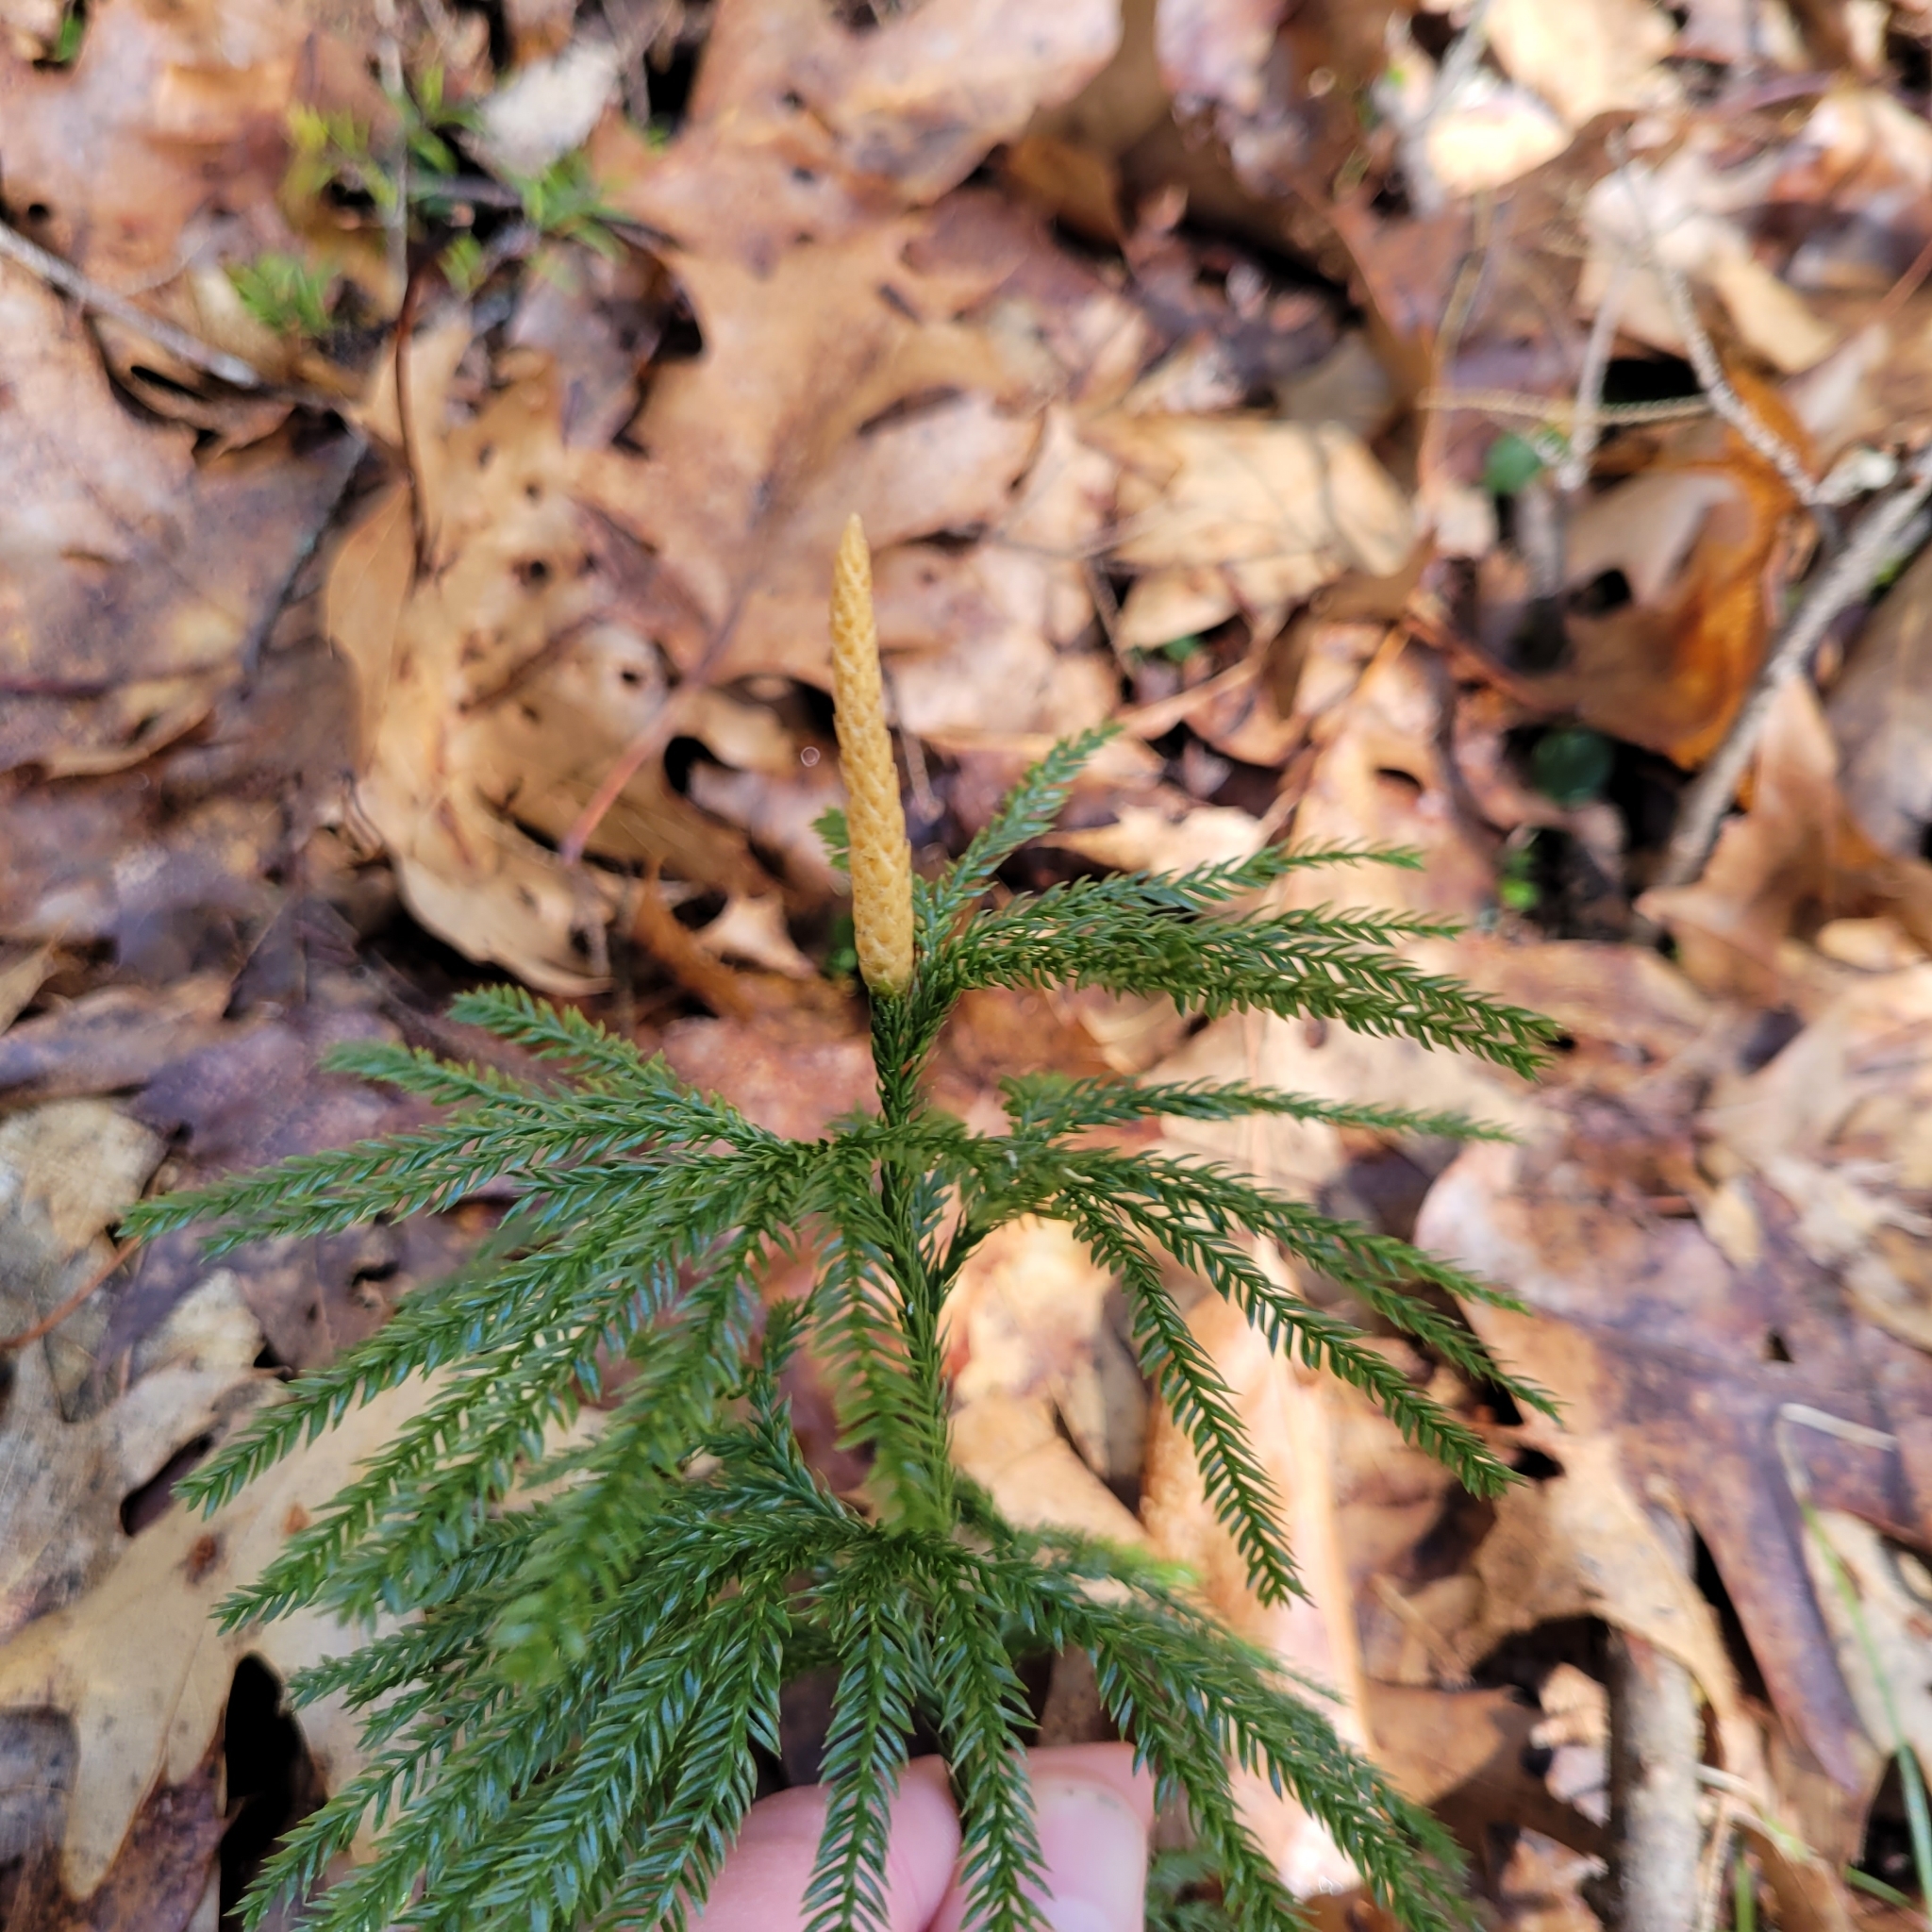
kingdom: Plantae
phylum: Tracheophyta
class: Lycopodiopsida
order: Lycopodiales
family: Lycopodiaceae
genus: Dendrolycopodium
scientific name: Dendrolycopodium obscurum
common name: Common ground-pine
